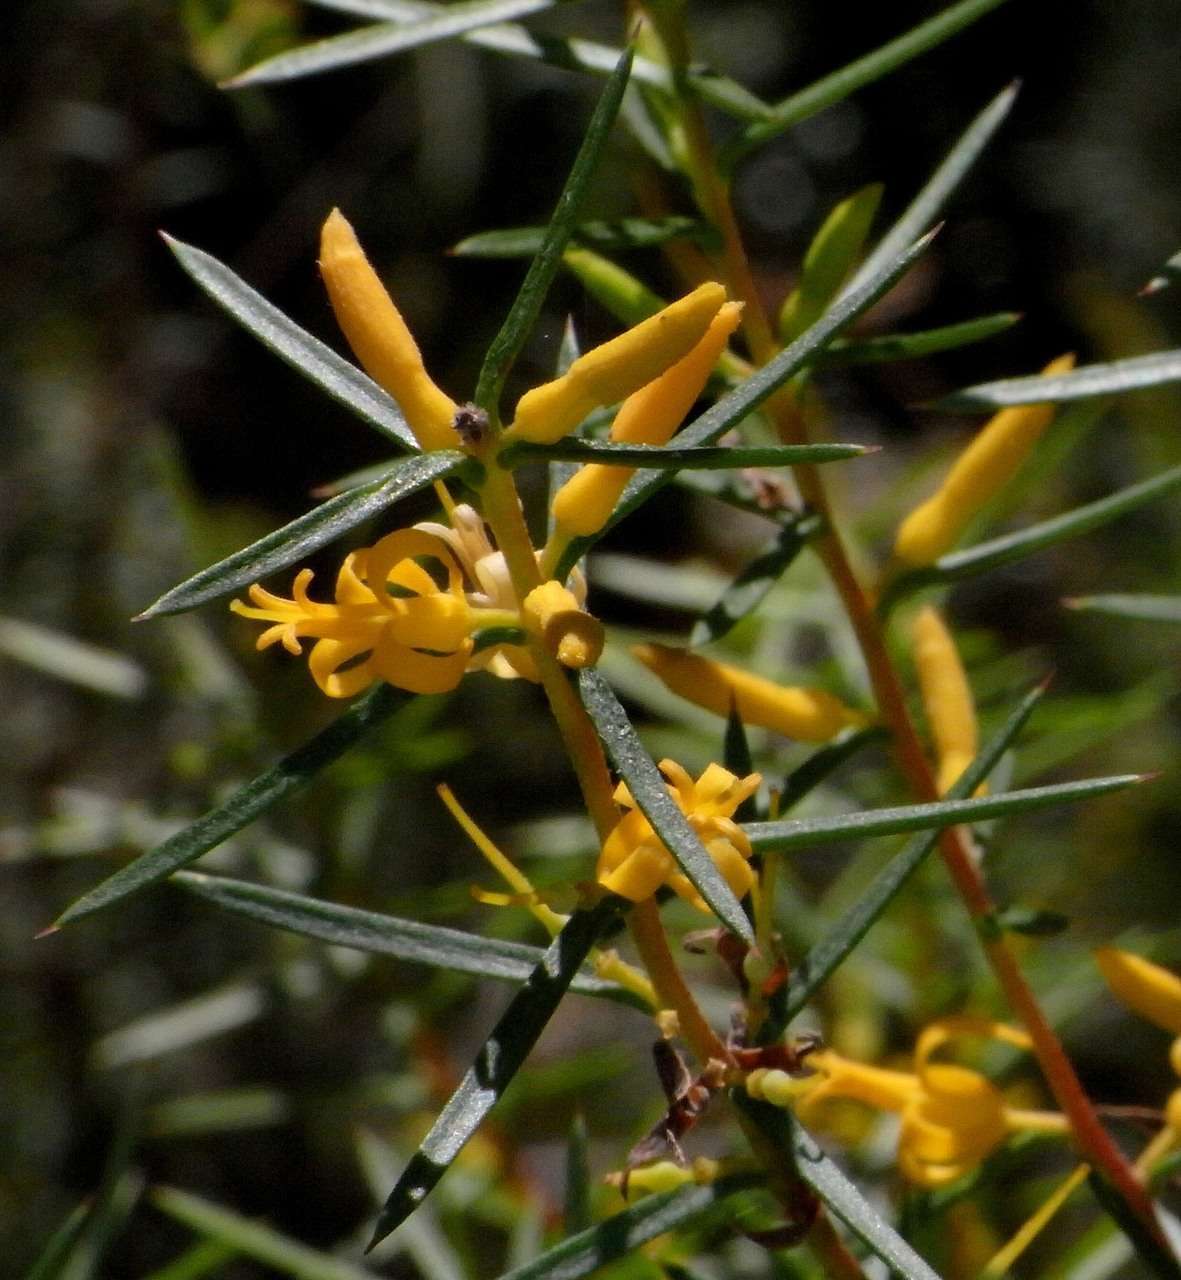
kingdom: Plantae
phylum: Tracheophyta
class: Magnoliopsida
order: Proteales
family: Proteaceae
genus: Persoonia
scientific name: Persoonia juniperina
